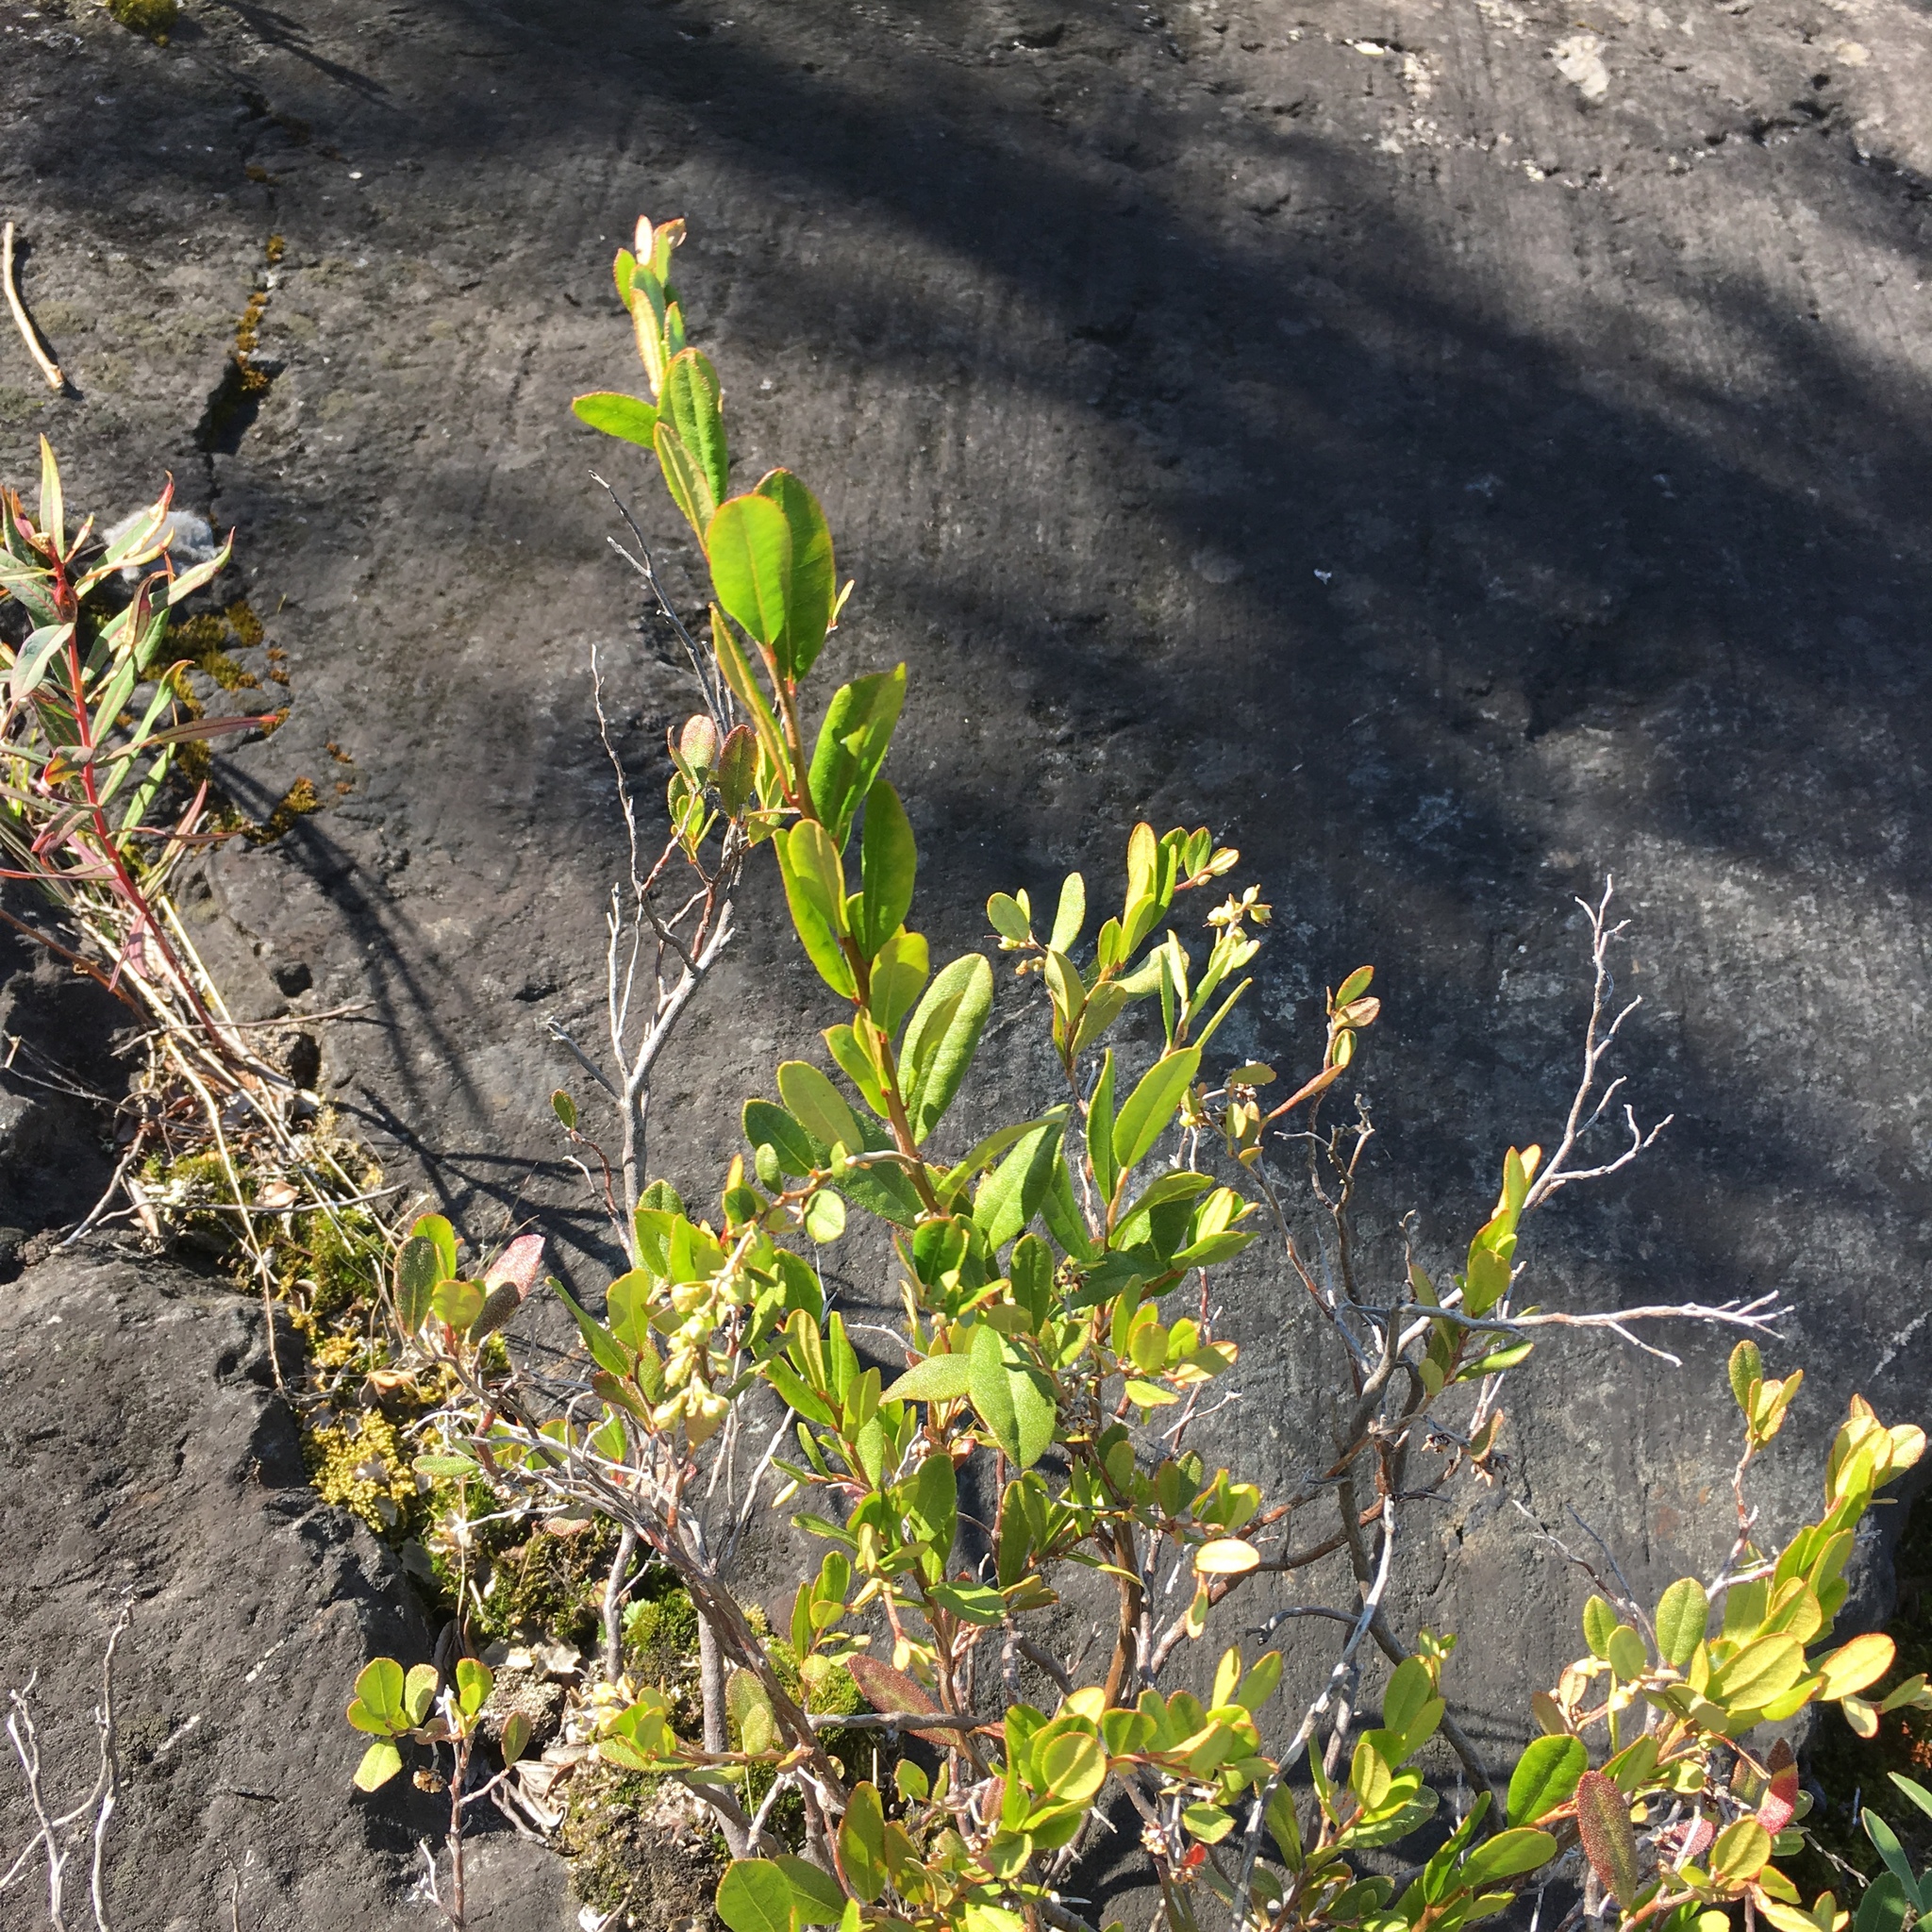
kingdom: Plantae
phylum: Tracheophyta
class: Magnoliopsida
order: Ericales
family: Ericaceae
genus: Chamaedaphne
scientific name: Chamaedaphne calyculata
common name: Leatherleaf
